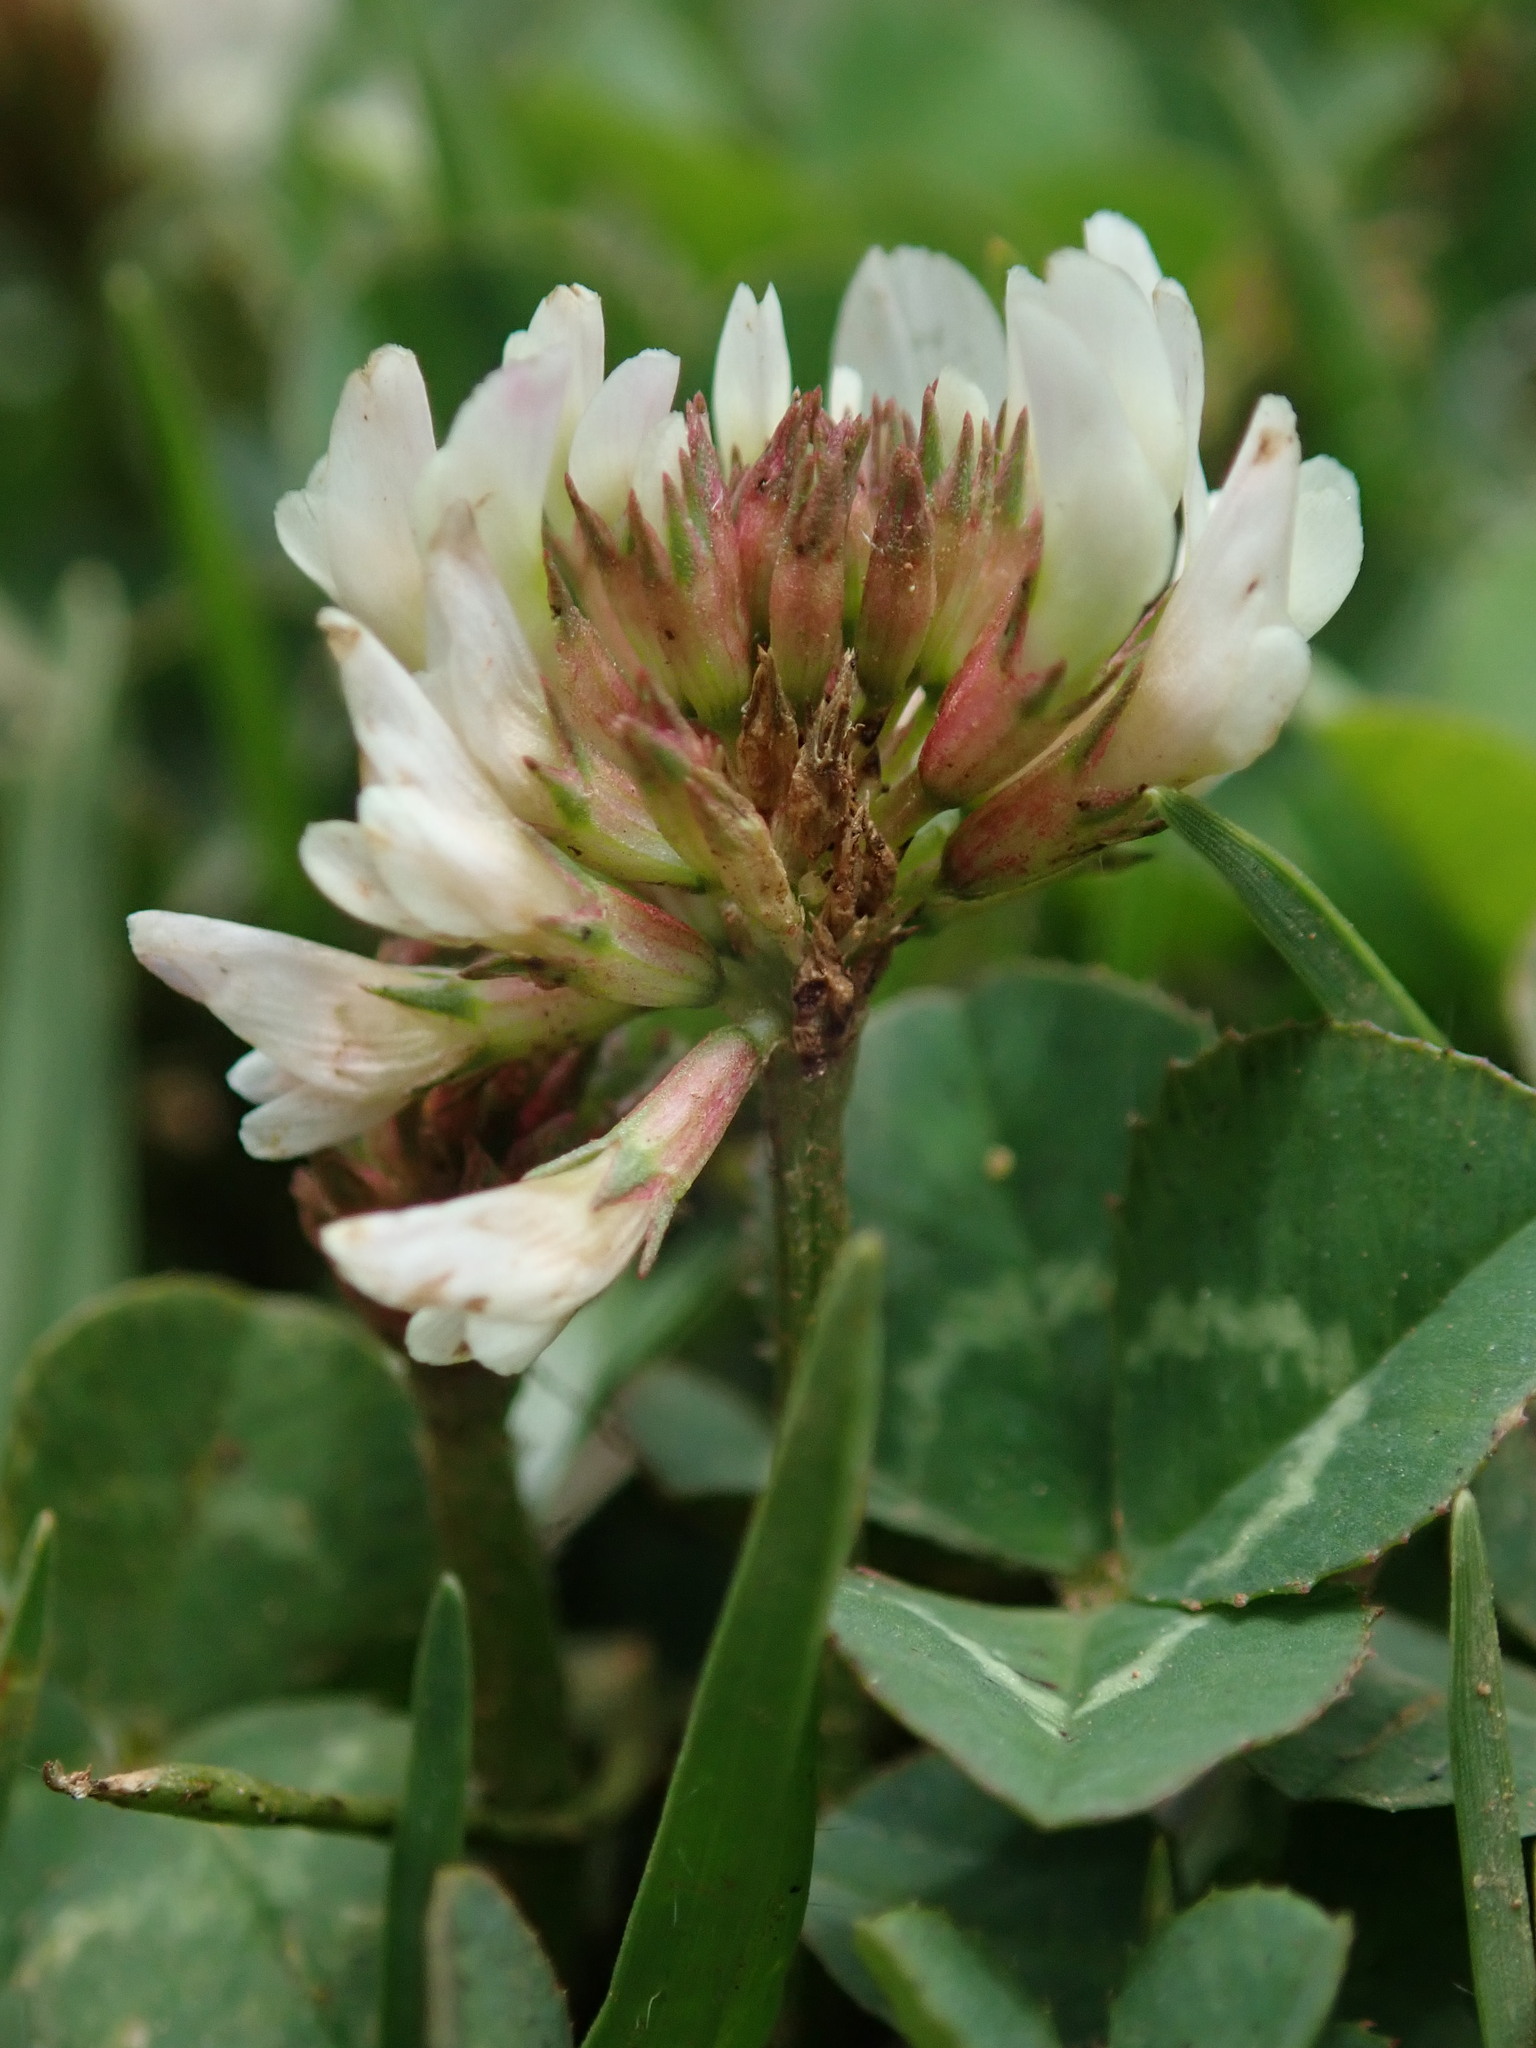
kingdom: Plantae
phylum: Tracheophyta
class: Magnoliopsida
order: Fabales
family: Fabaceae
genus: Trifolium
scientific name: Trifolium repens
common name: White clover
